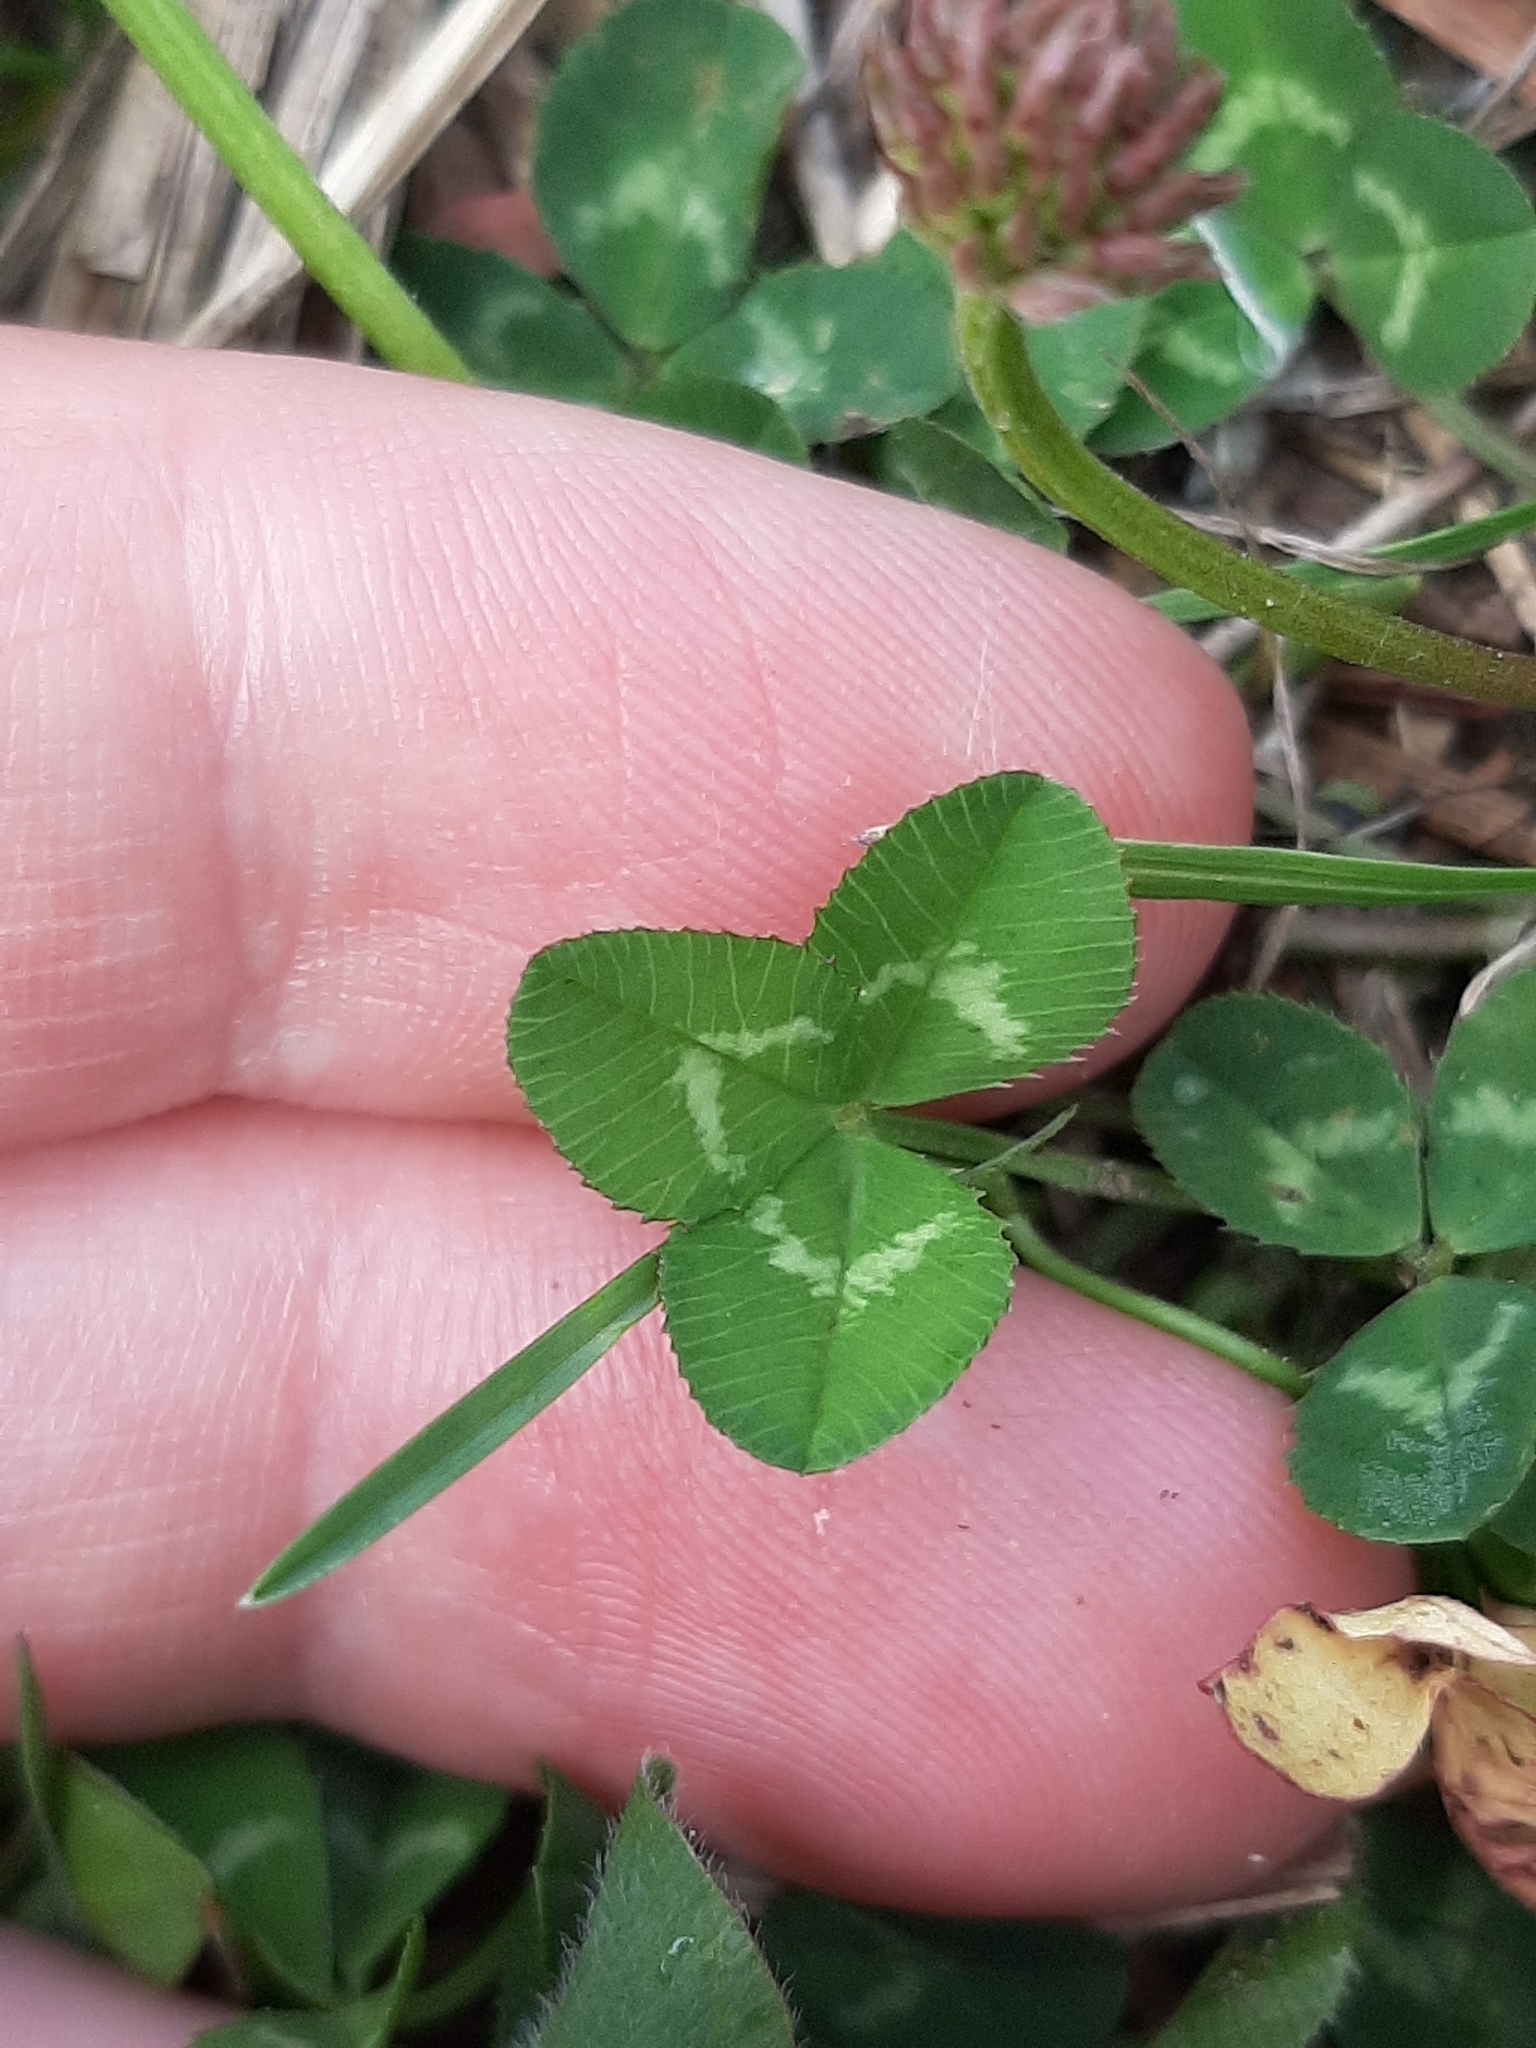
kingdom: Plantae
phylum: Tracheophyta
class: Magnoliopsida
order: Fabales
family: Fabaceae
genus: Trifolium
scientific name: Trifolium repens
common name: White clover
